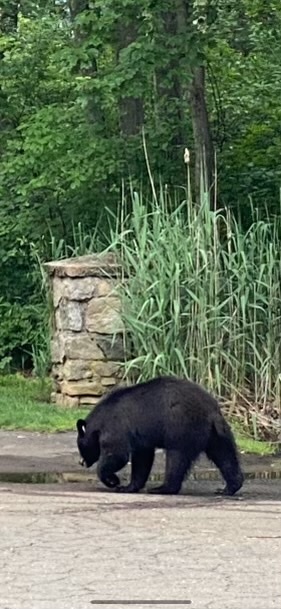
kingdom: Animalia
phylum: Chordata
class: Mammalia
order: Carnivora
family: Ursidae
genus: Ursus
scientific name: Ursus americanus
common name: American black bear
